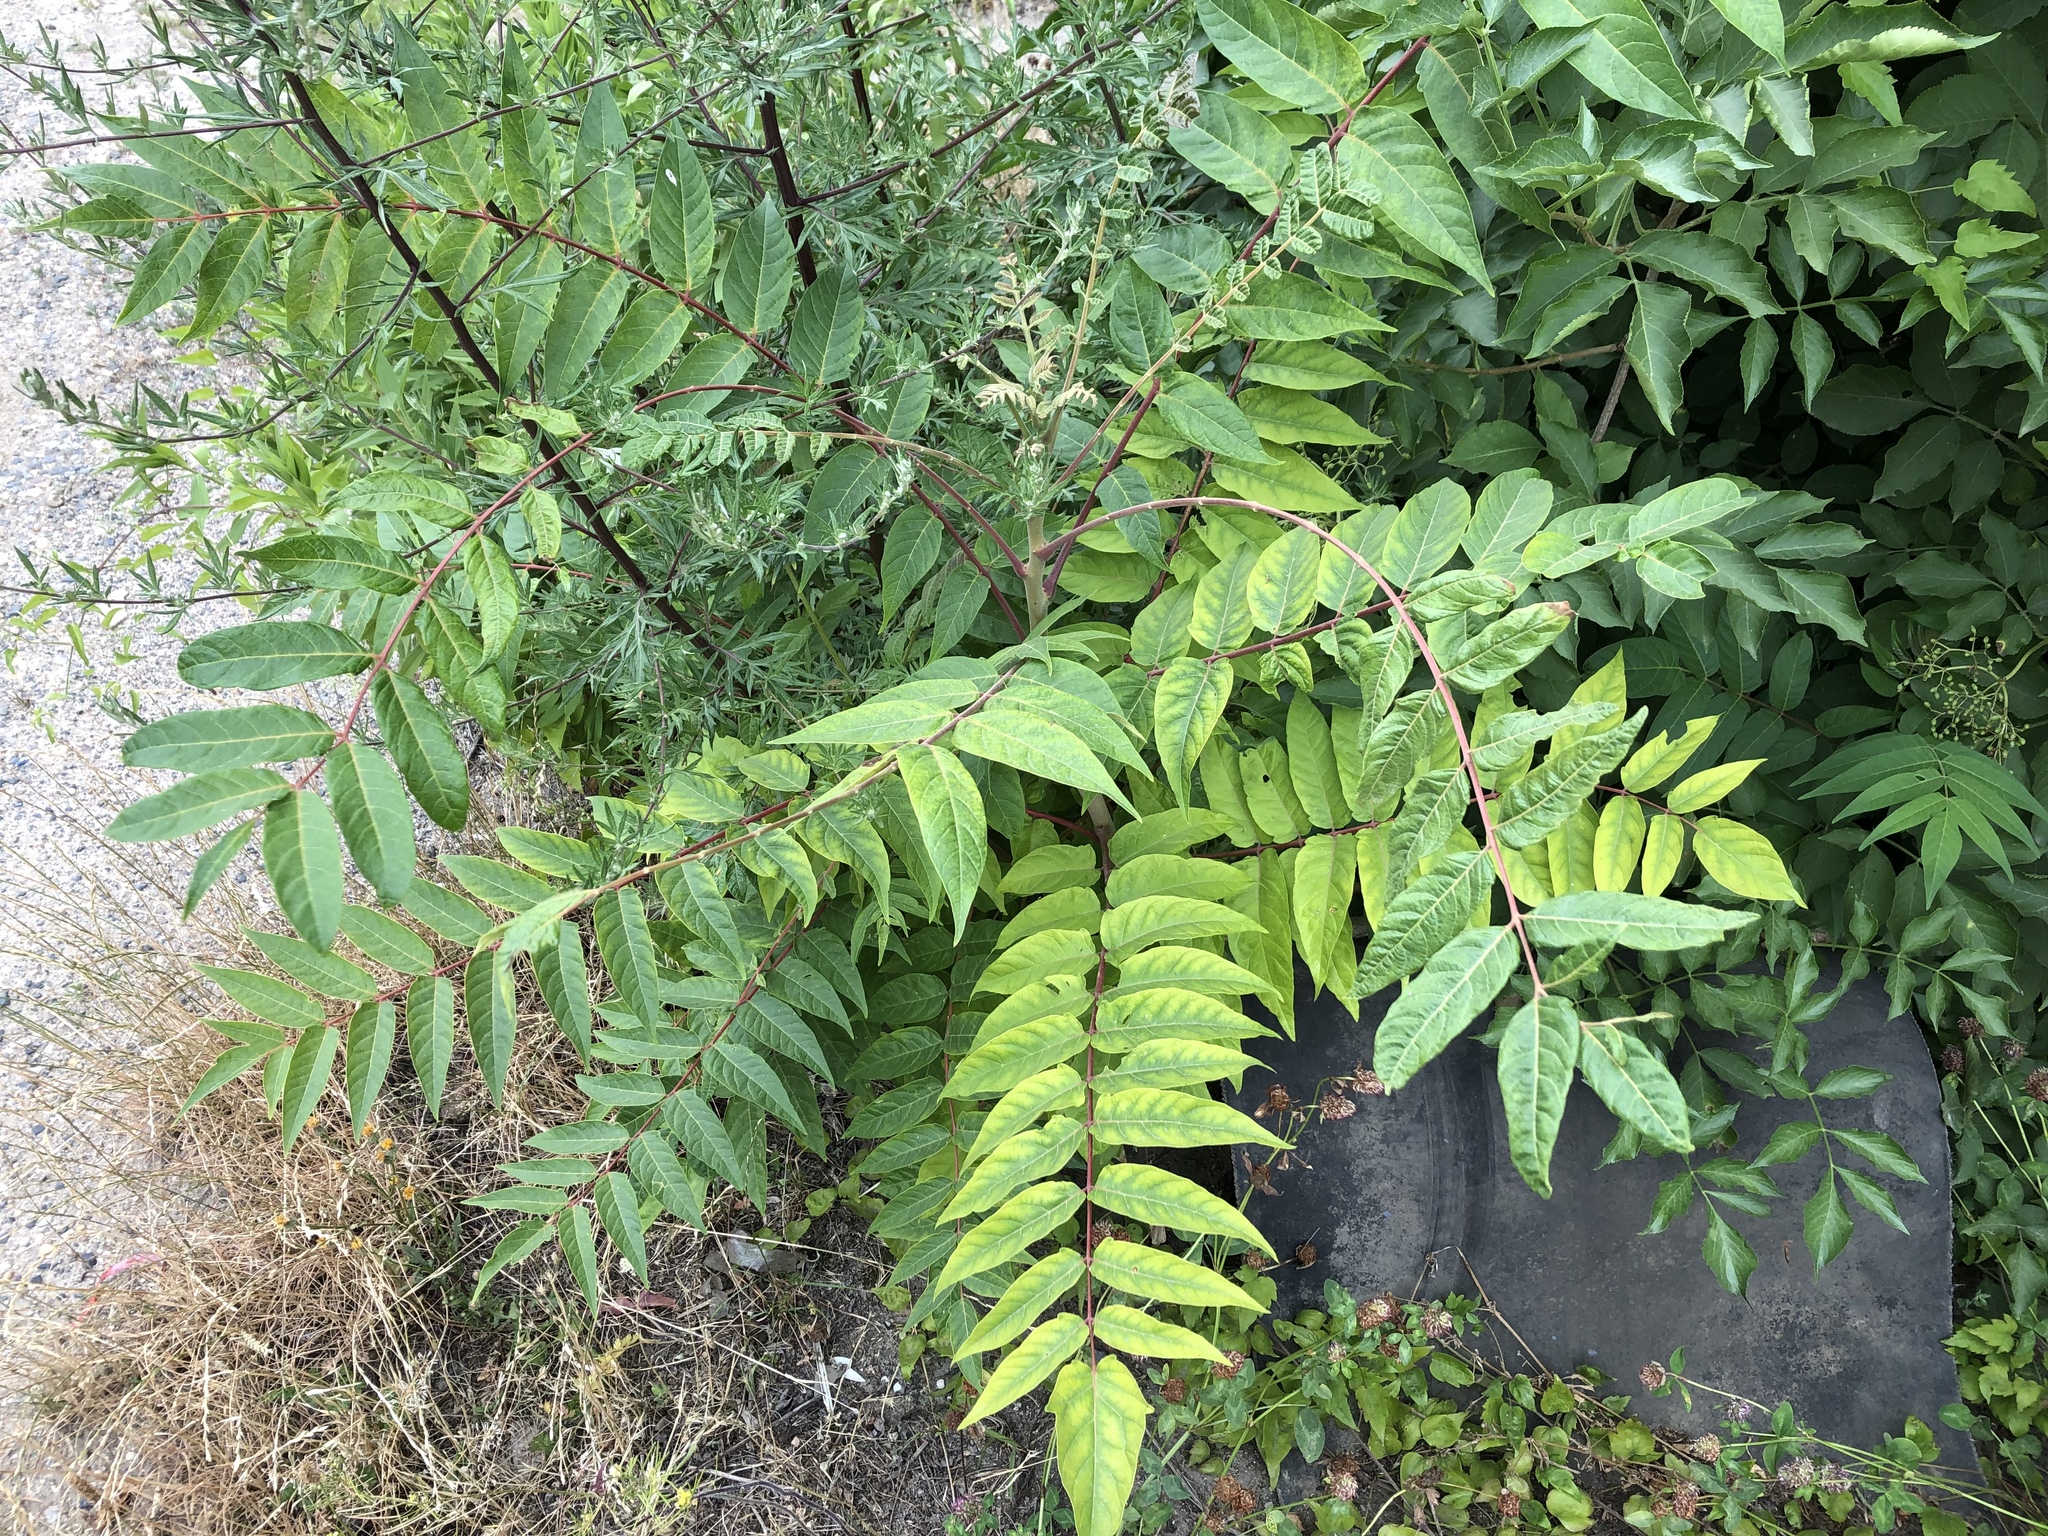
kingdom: Plantae
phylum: Tracheophyta
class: Magnoliopsida
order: Sapindales
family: Simaroubaceae
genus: Ailanthus
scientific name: Ailanthus altissima
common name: Tree-of-heaven
